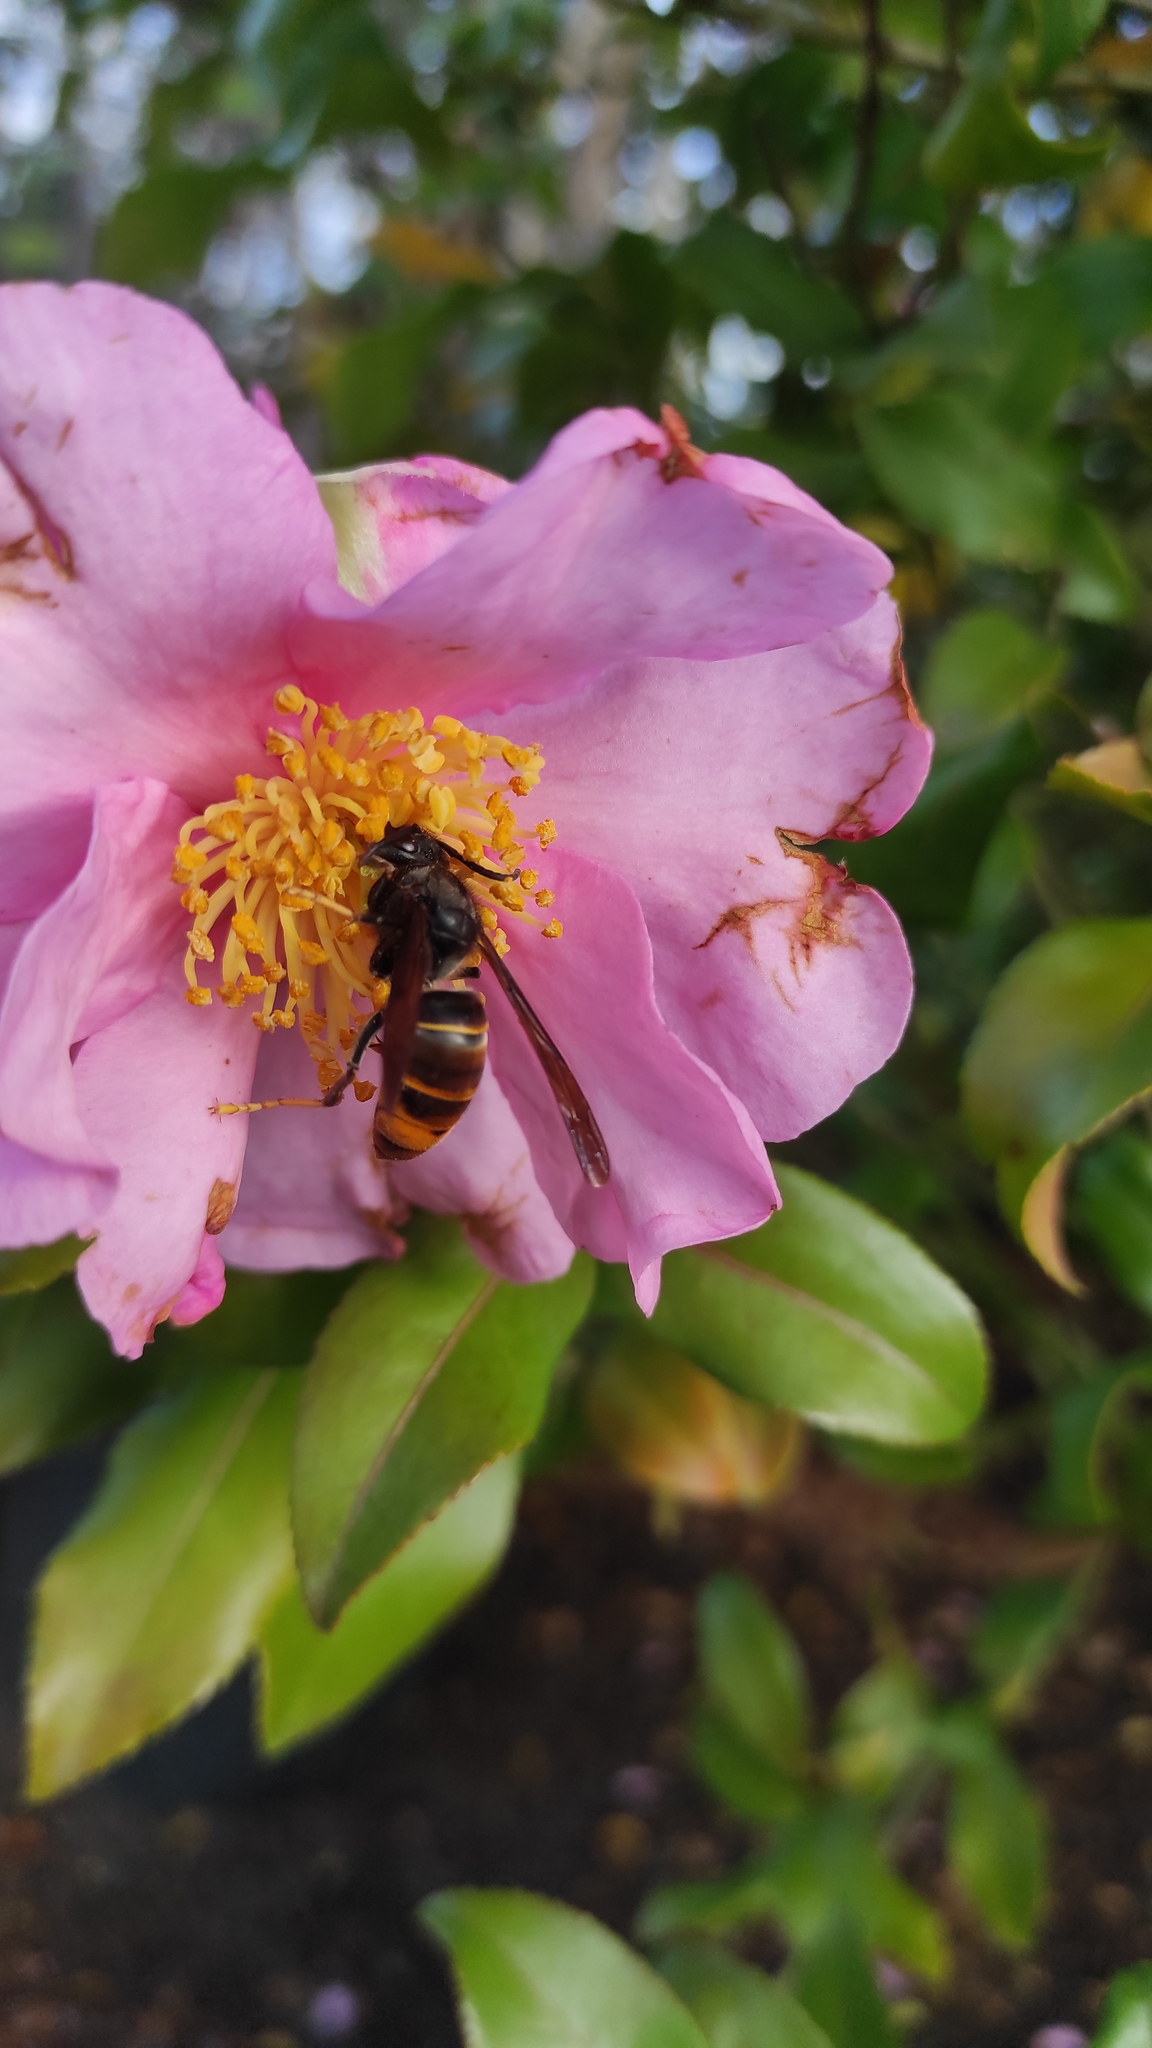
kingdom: Animalia
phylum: Arthropoda
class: Insecta
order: Hymenoptera
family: Vespidae
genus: Vespa
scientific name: Vespa velutina
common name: Asian hornet
